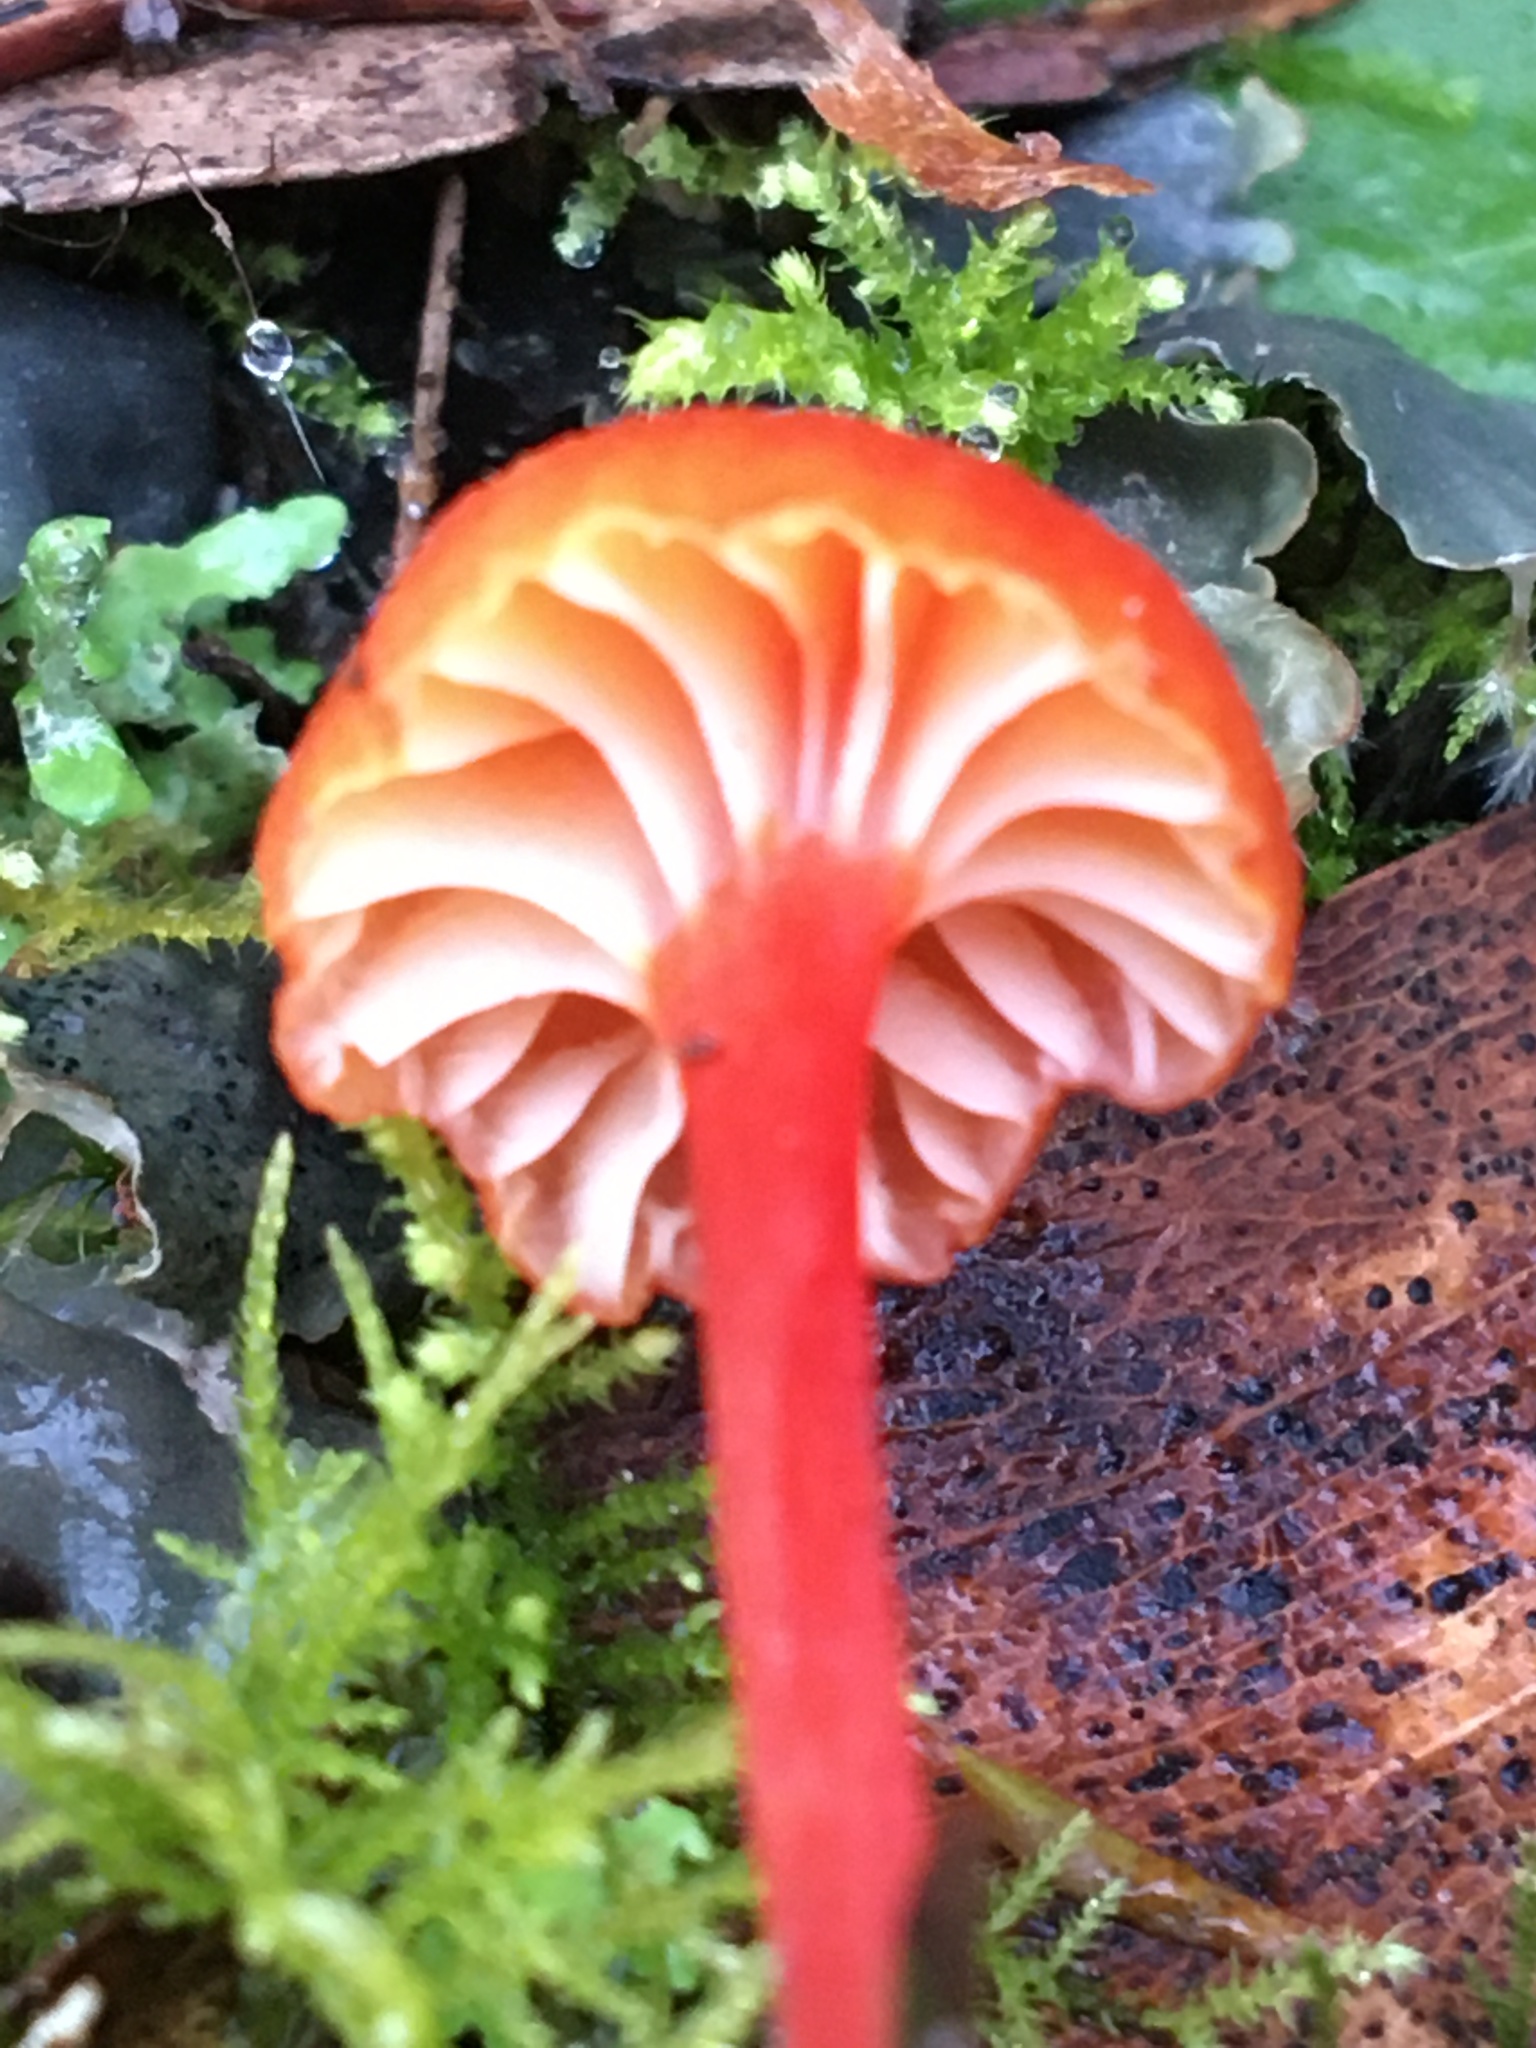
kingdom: Fungi
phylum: Basidiomycota
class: Agaricomycetes
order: Agaricales
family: Hygrophoraceae
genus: Hygrocybe
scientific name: Hygrocybe miniata
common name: Vermilion waxcap
